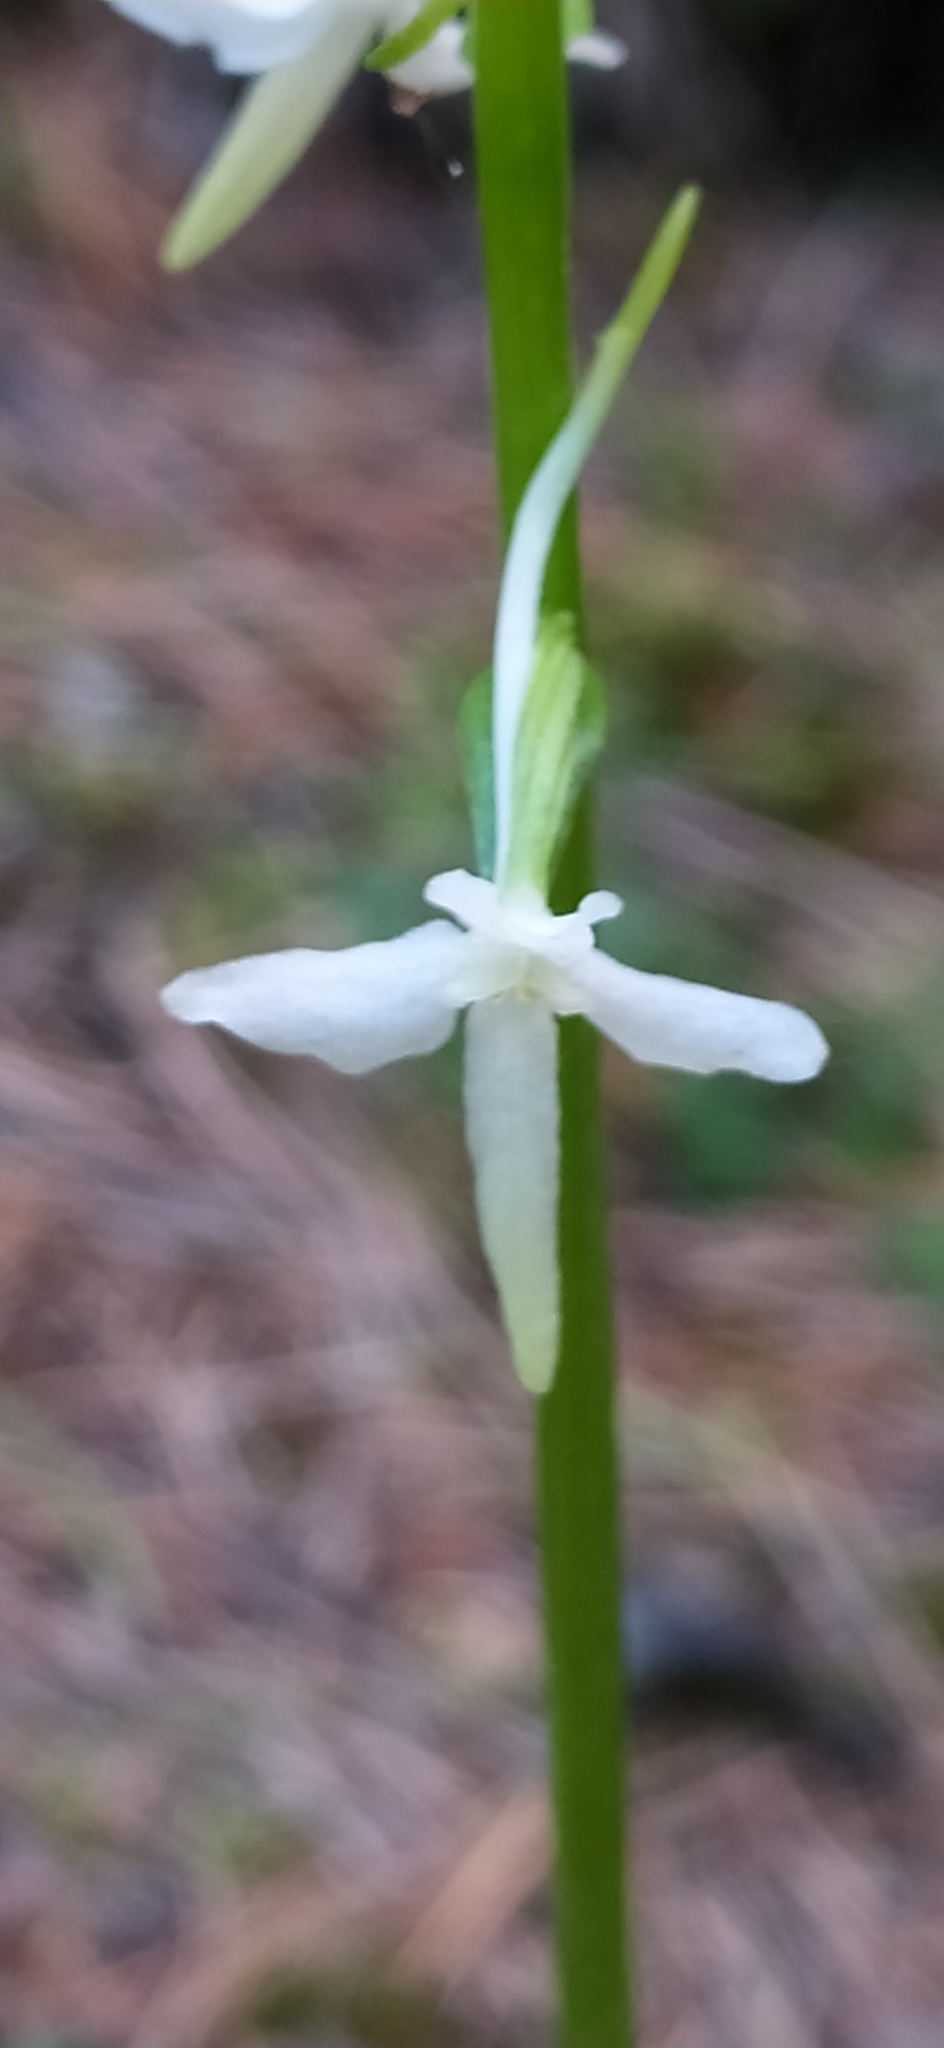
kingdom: Plantae
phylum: Tracheophyta
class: Liliopsida
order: Asparagales
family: Orchidaceae
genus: Platanthera
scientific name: Platanthera bifolia
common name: Lesser butterfly-orchid
